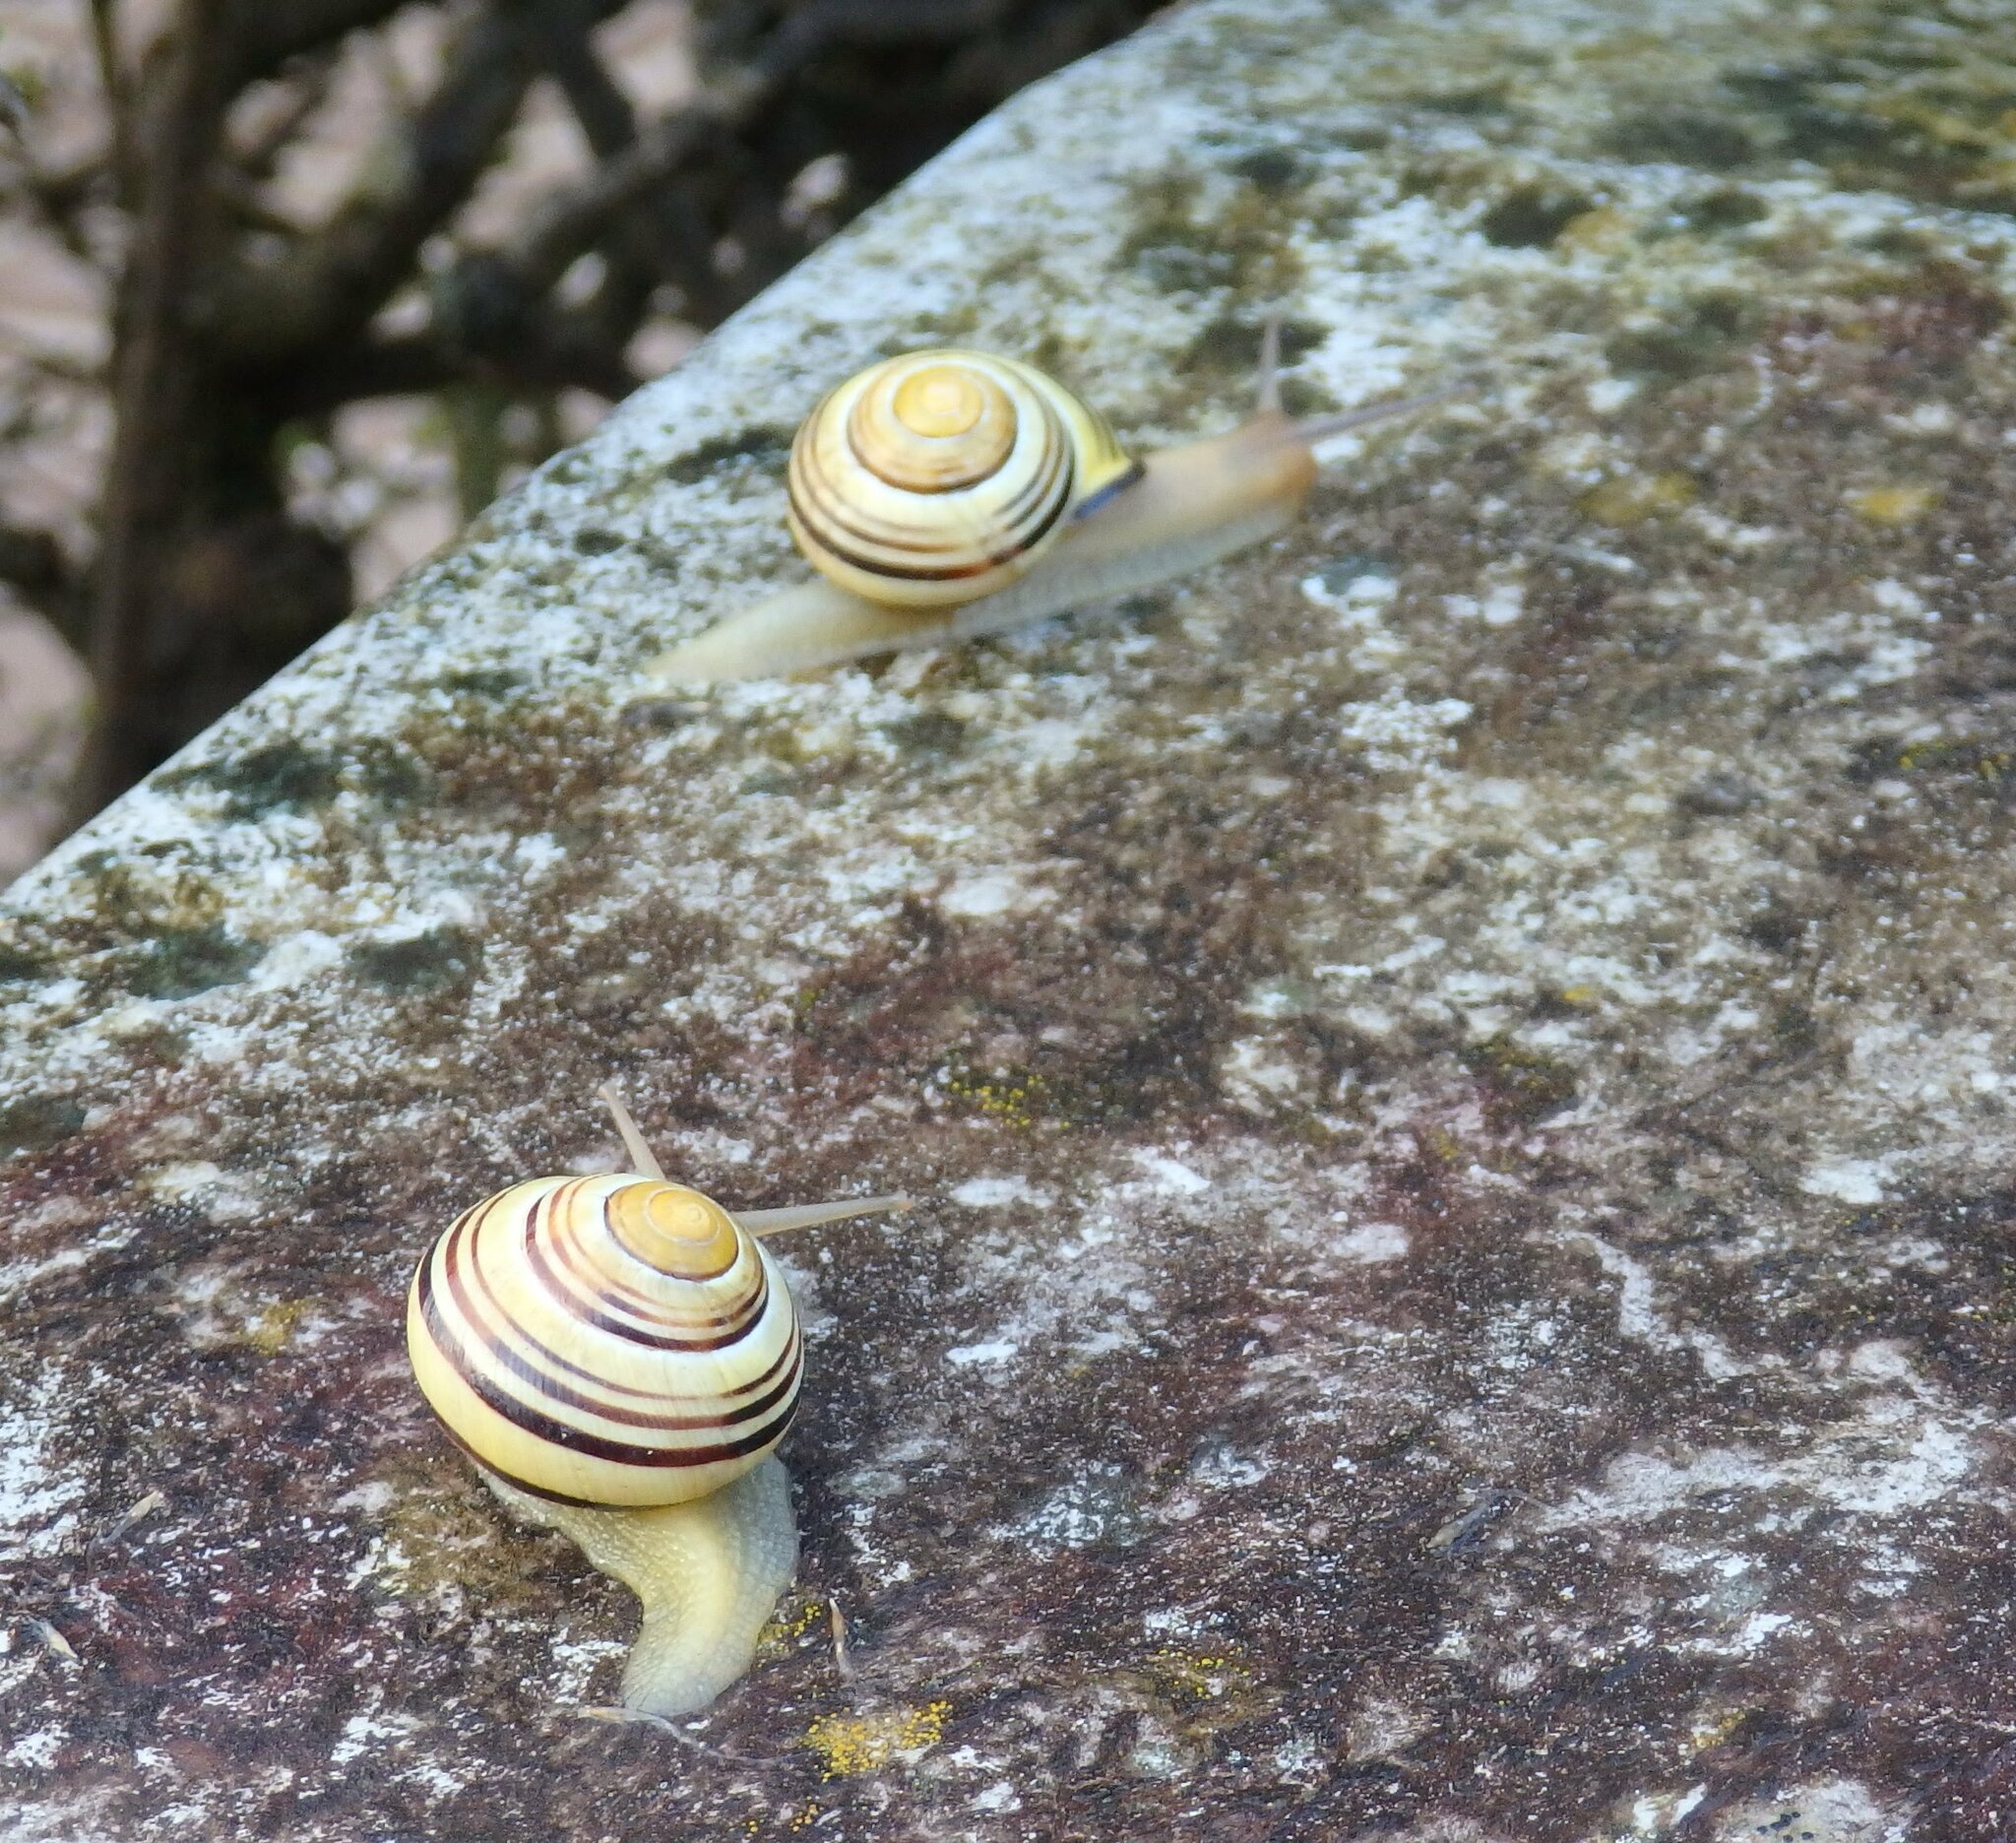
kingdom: Animalia
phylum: Mollusca
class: Gastropoda
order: Stylommatophora
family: Helicidae
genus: Cepaea
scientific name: Cepaea nemoralis
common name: Grovesnail
